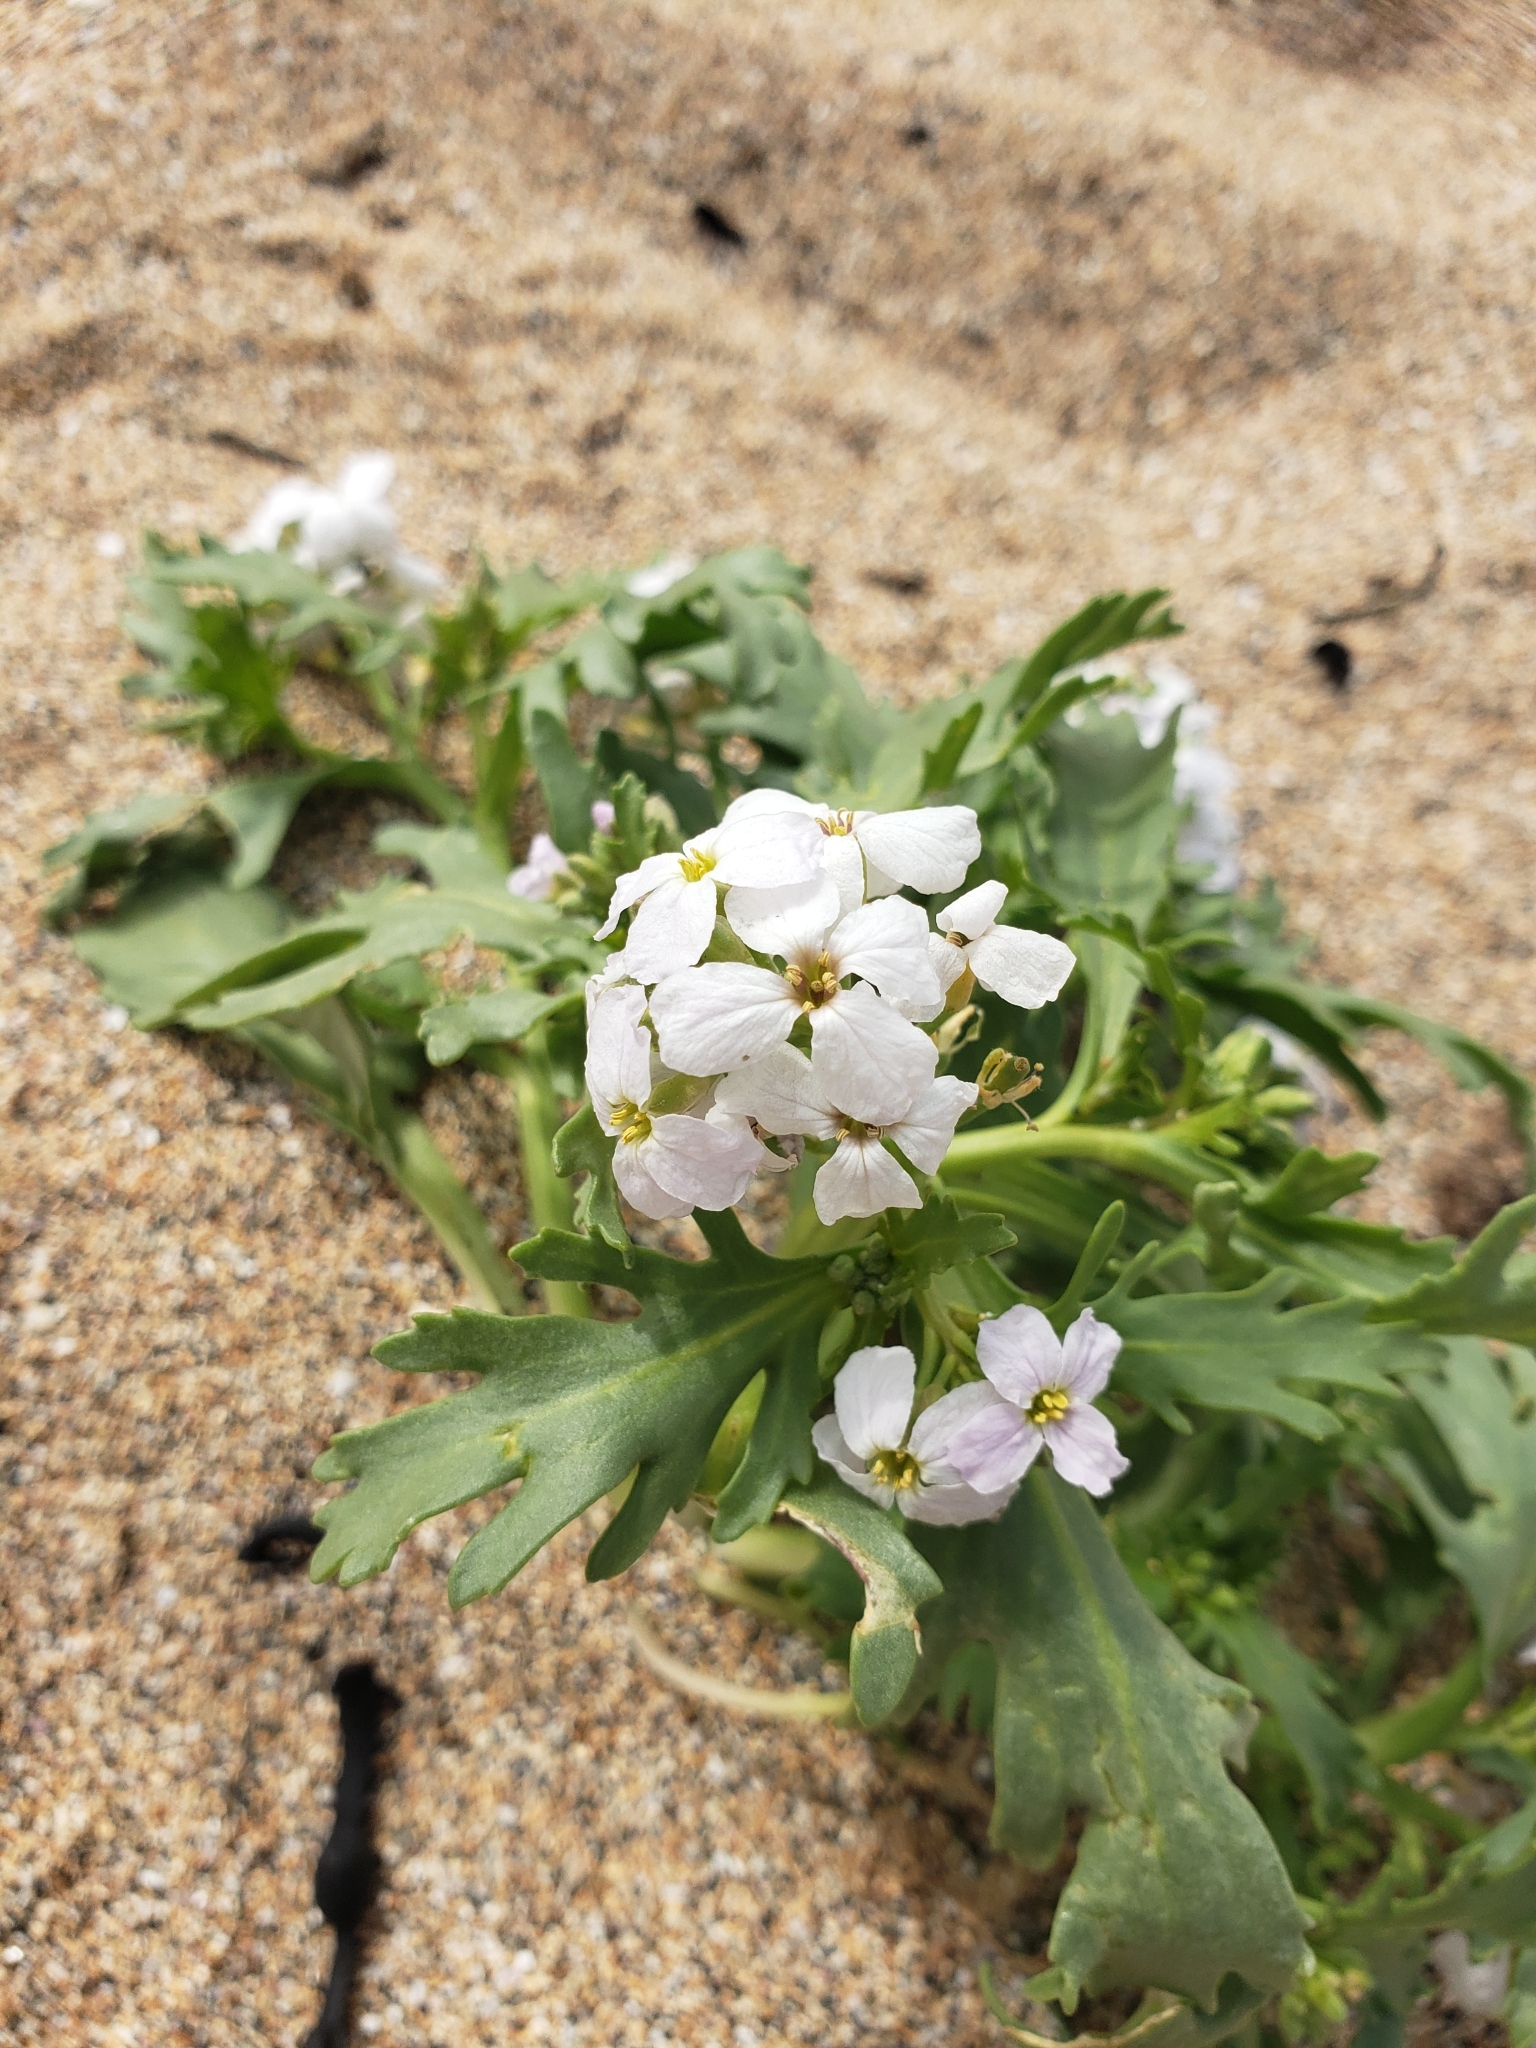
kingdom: Plantae
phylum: Tracheophyta
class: Magnoliopsida
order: Brassicales
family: Brassicaceae
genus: Cakile
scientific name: Cakile arctica
